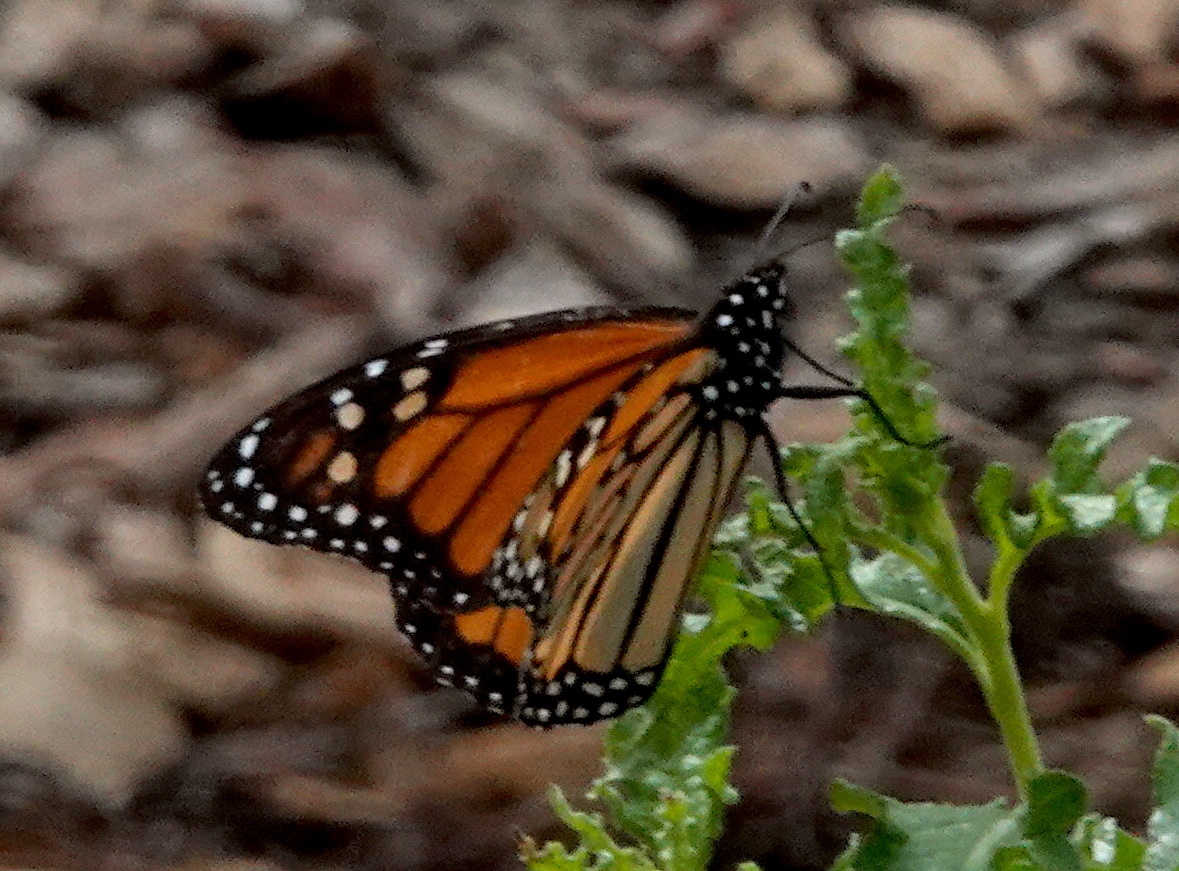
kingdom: Animalia
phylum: Arthropoda
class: Insecta
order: Lepidoptera
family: Nymphalidae
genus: Danaus
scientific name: Danaus plexippus
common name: Monarch
